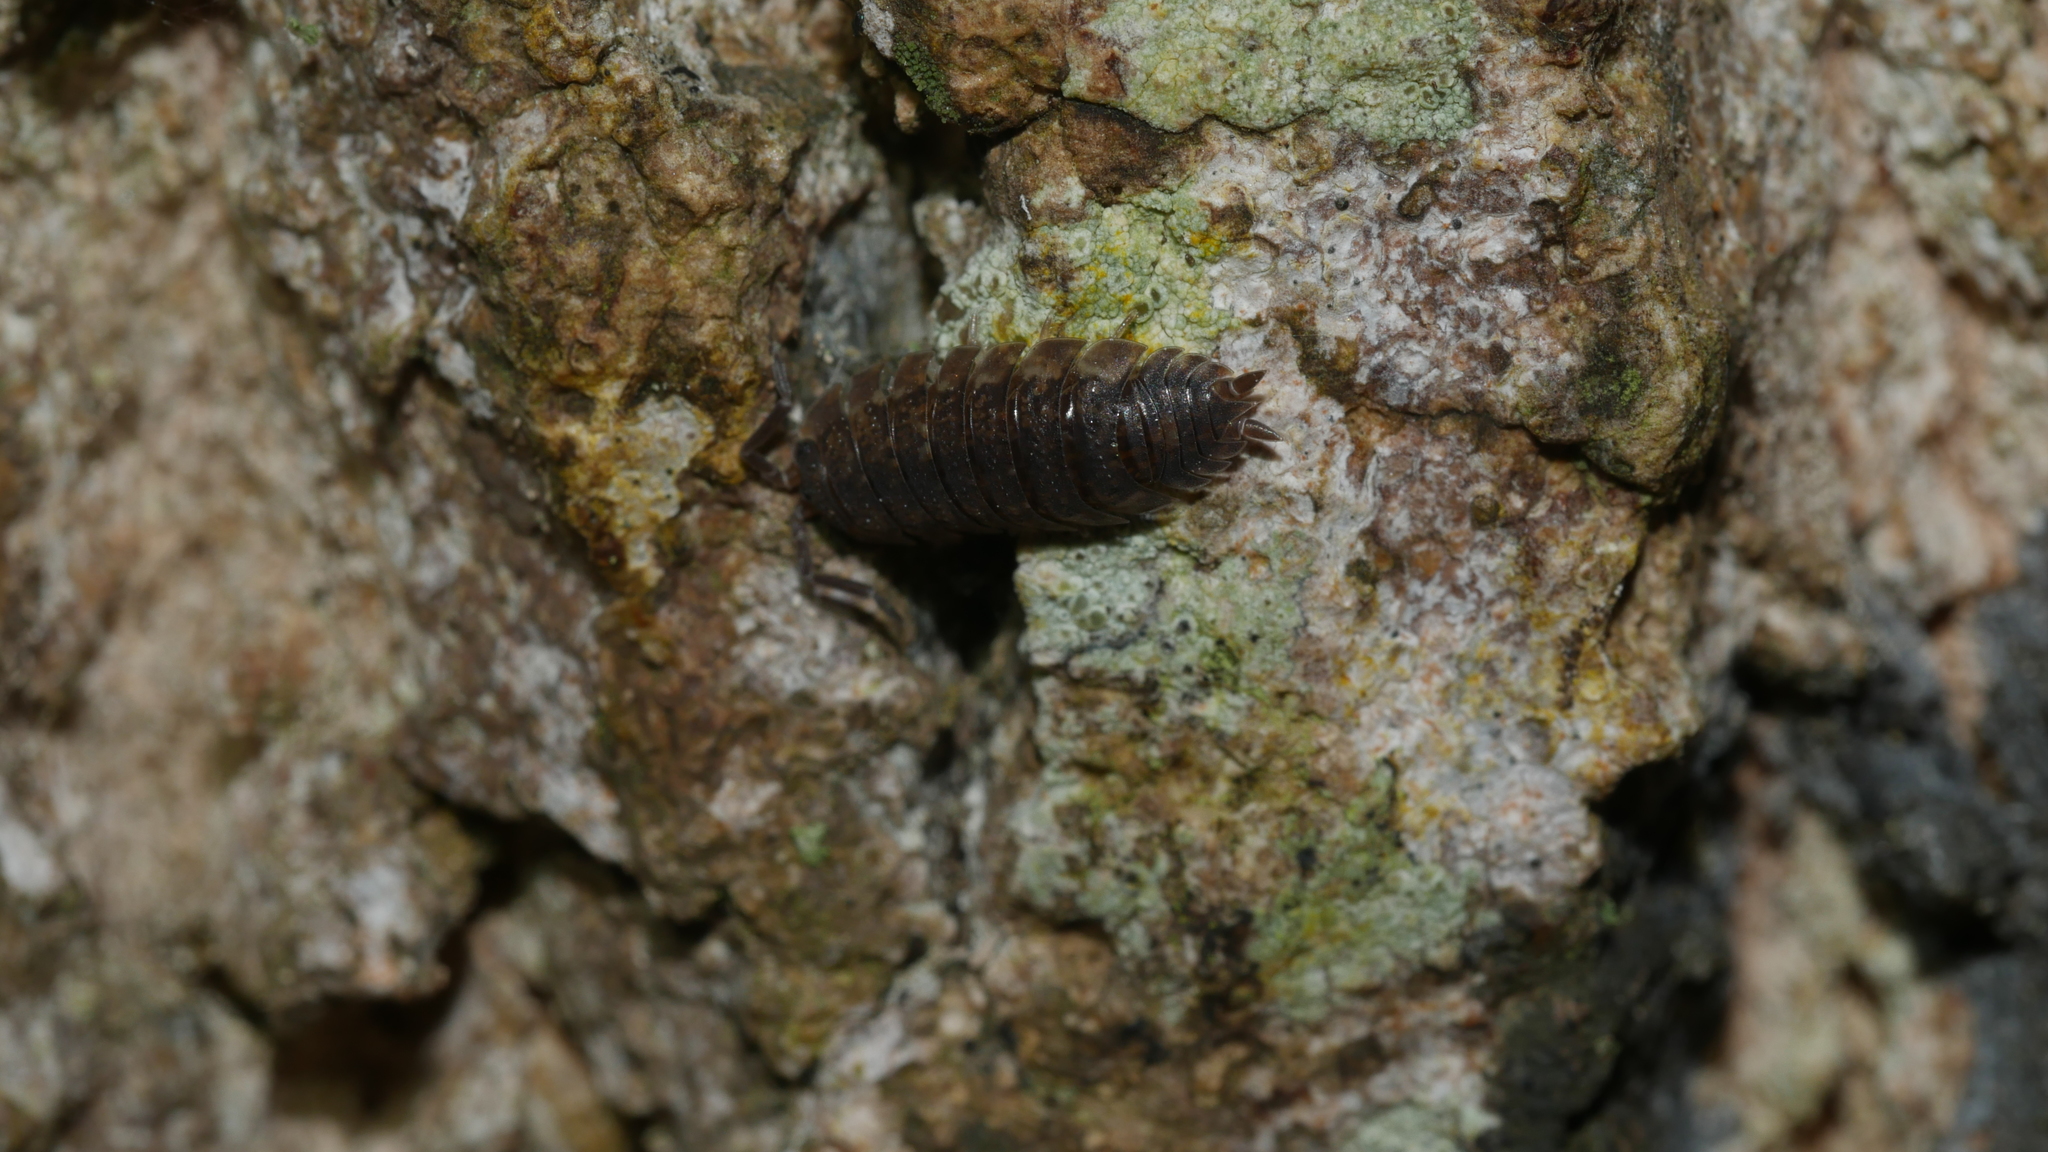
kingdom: Animalia
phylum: Arthropoda
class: Malacostraca
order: Isopoda
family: Porcellionidae
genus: Porcellio
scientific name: Porcellio scaber
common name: Common rough woodlouse
